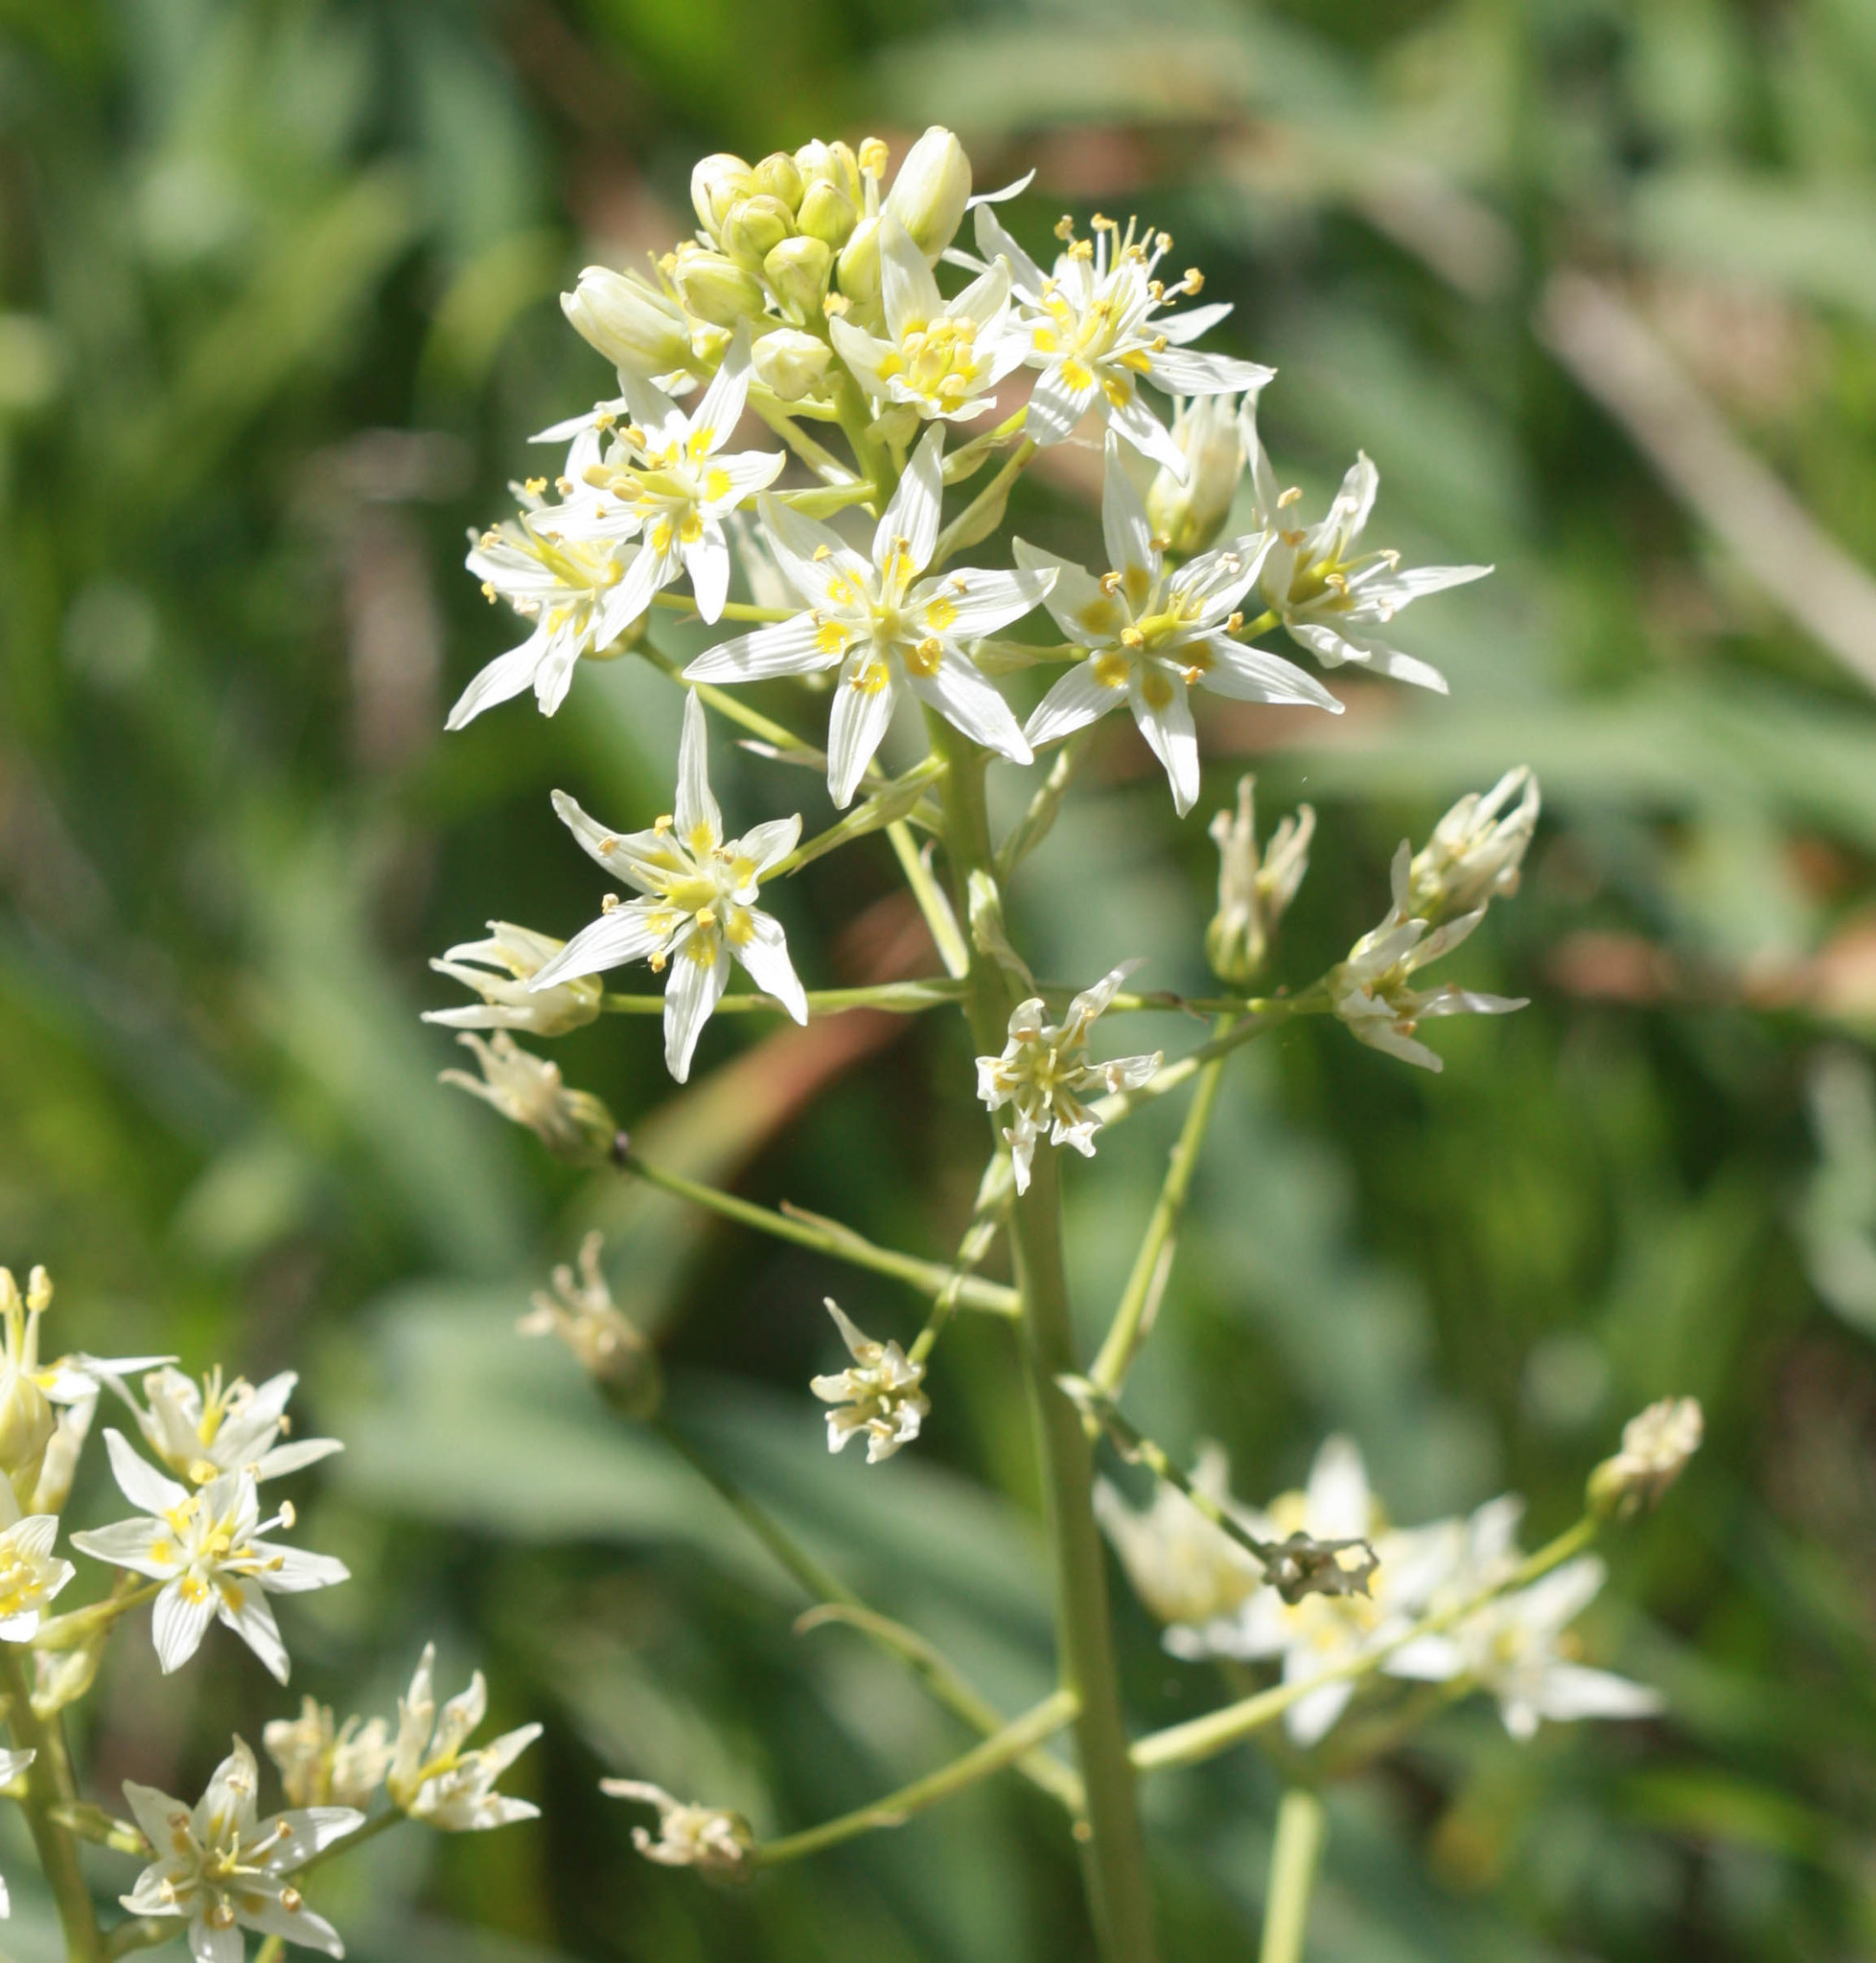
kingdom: Plantae
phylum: Tracheophyta
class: Liliopsida
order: Liliales
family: Melanthiaceae
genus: Toxicoscordion
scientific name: Toxicoscordion fremontii
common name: Fremont's death camas
